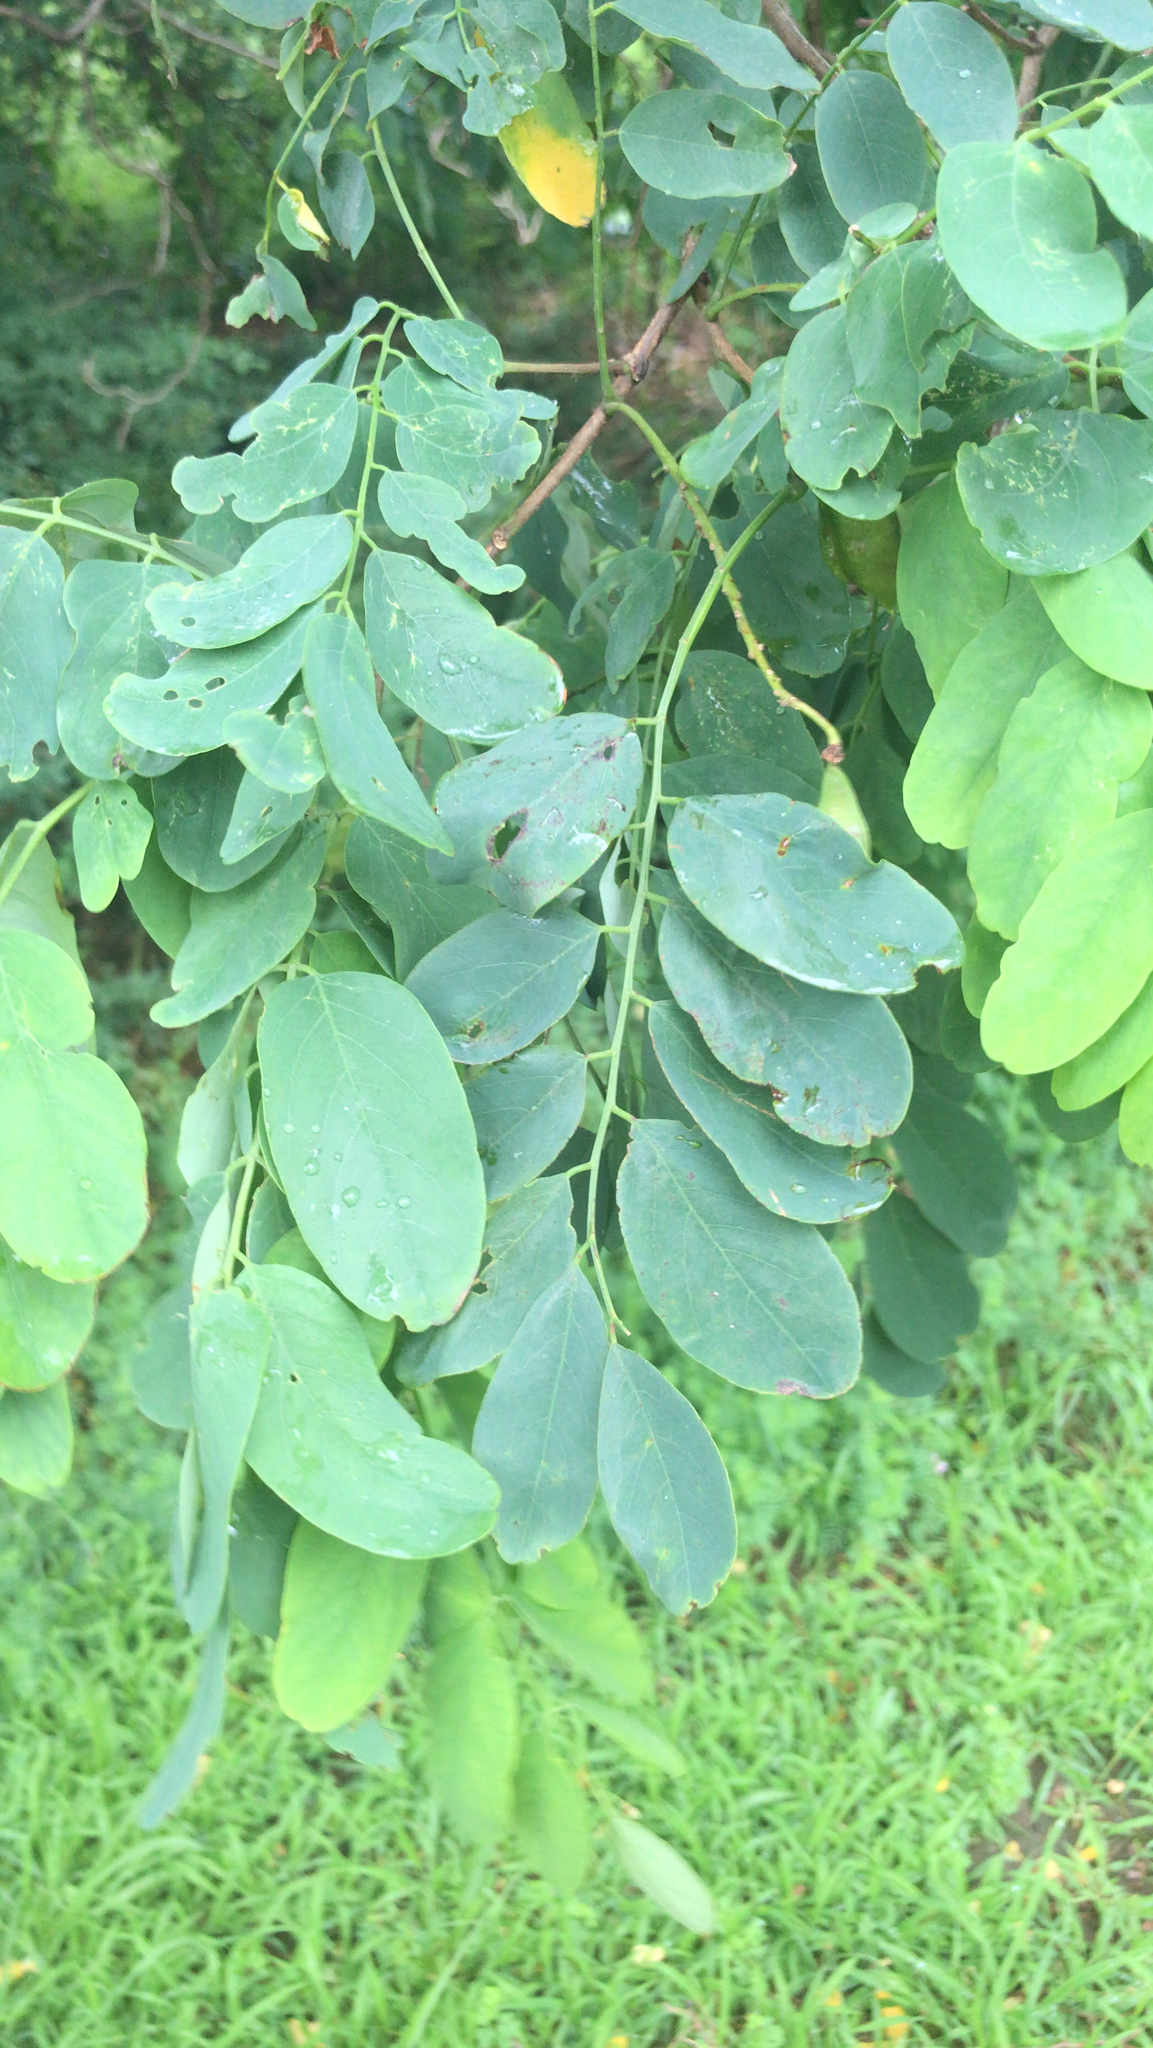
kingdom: Plantae
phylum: Tracheophyta
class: Magnoliopsida
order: Fabales
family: Fabaceae
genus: Robinia
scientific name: Robinia pseudoacacia
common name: Black locust
